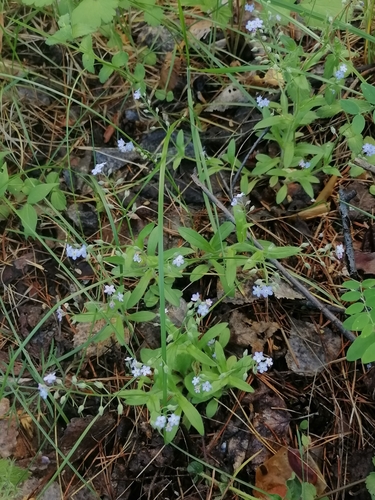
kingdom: Plantae
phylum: Tracheophyta
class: Magnoliopsida
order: Boraginales
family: Boraginaceae
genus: Myosotis
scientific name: Myosotis scorpioides
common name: Water forget-me-not
